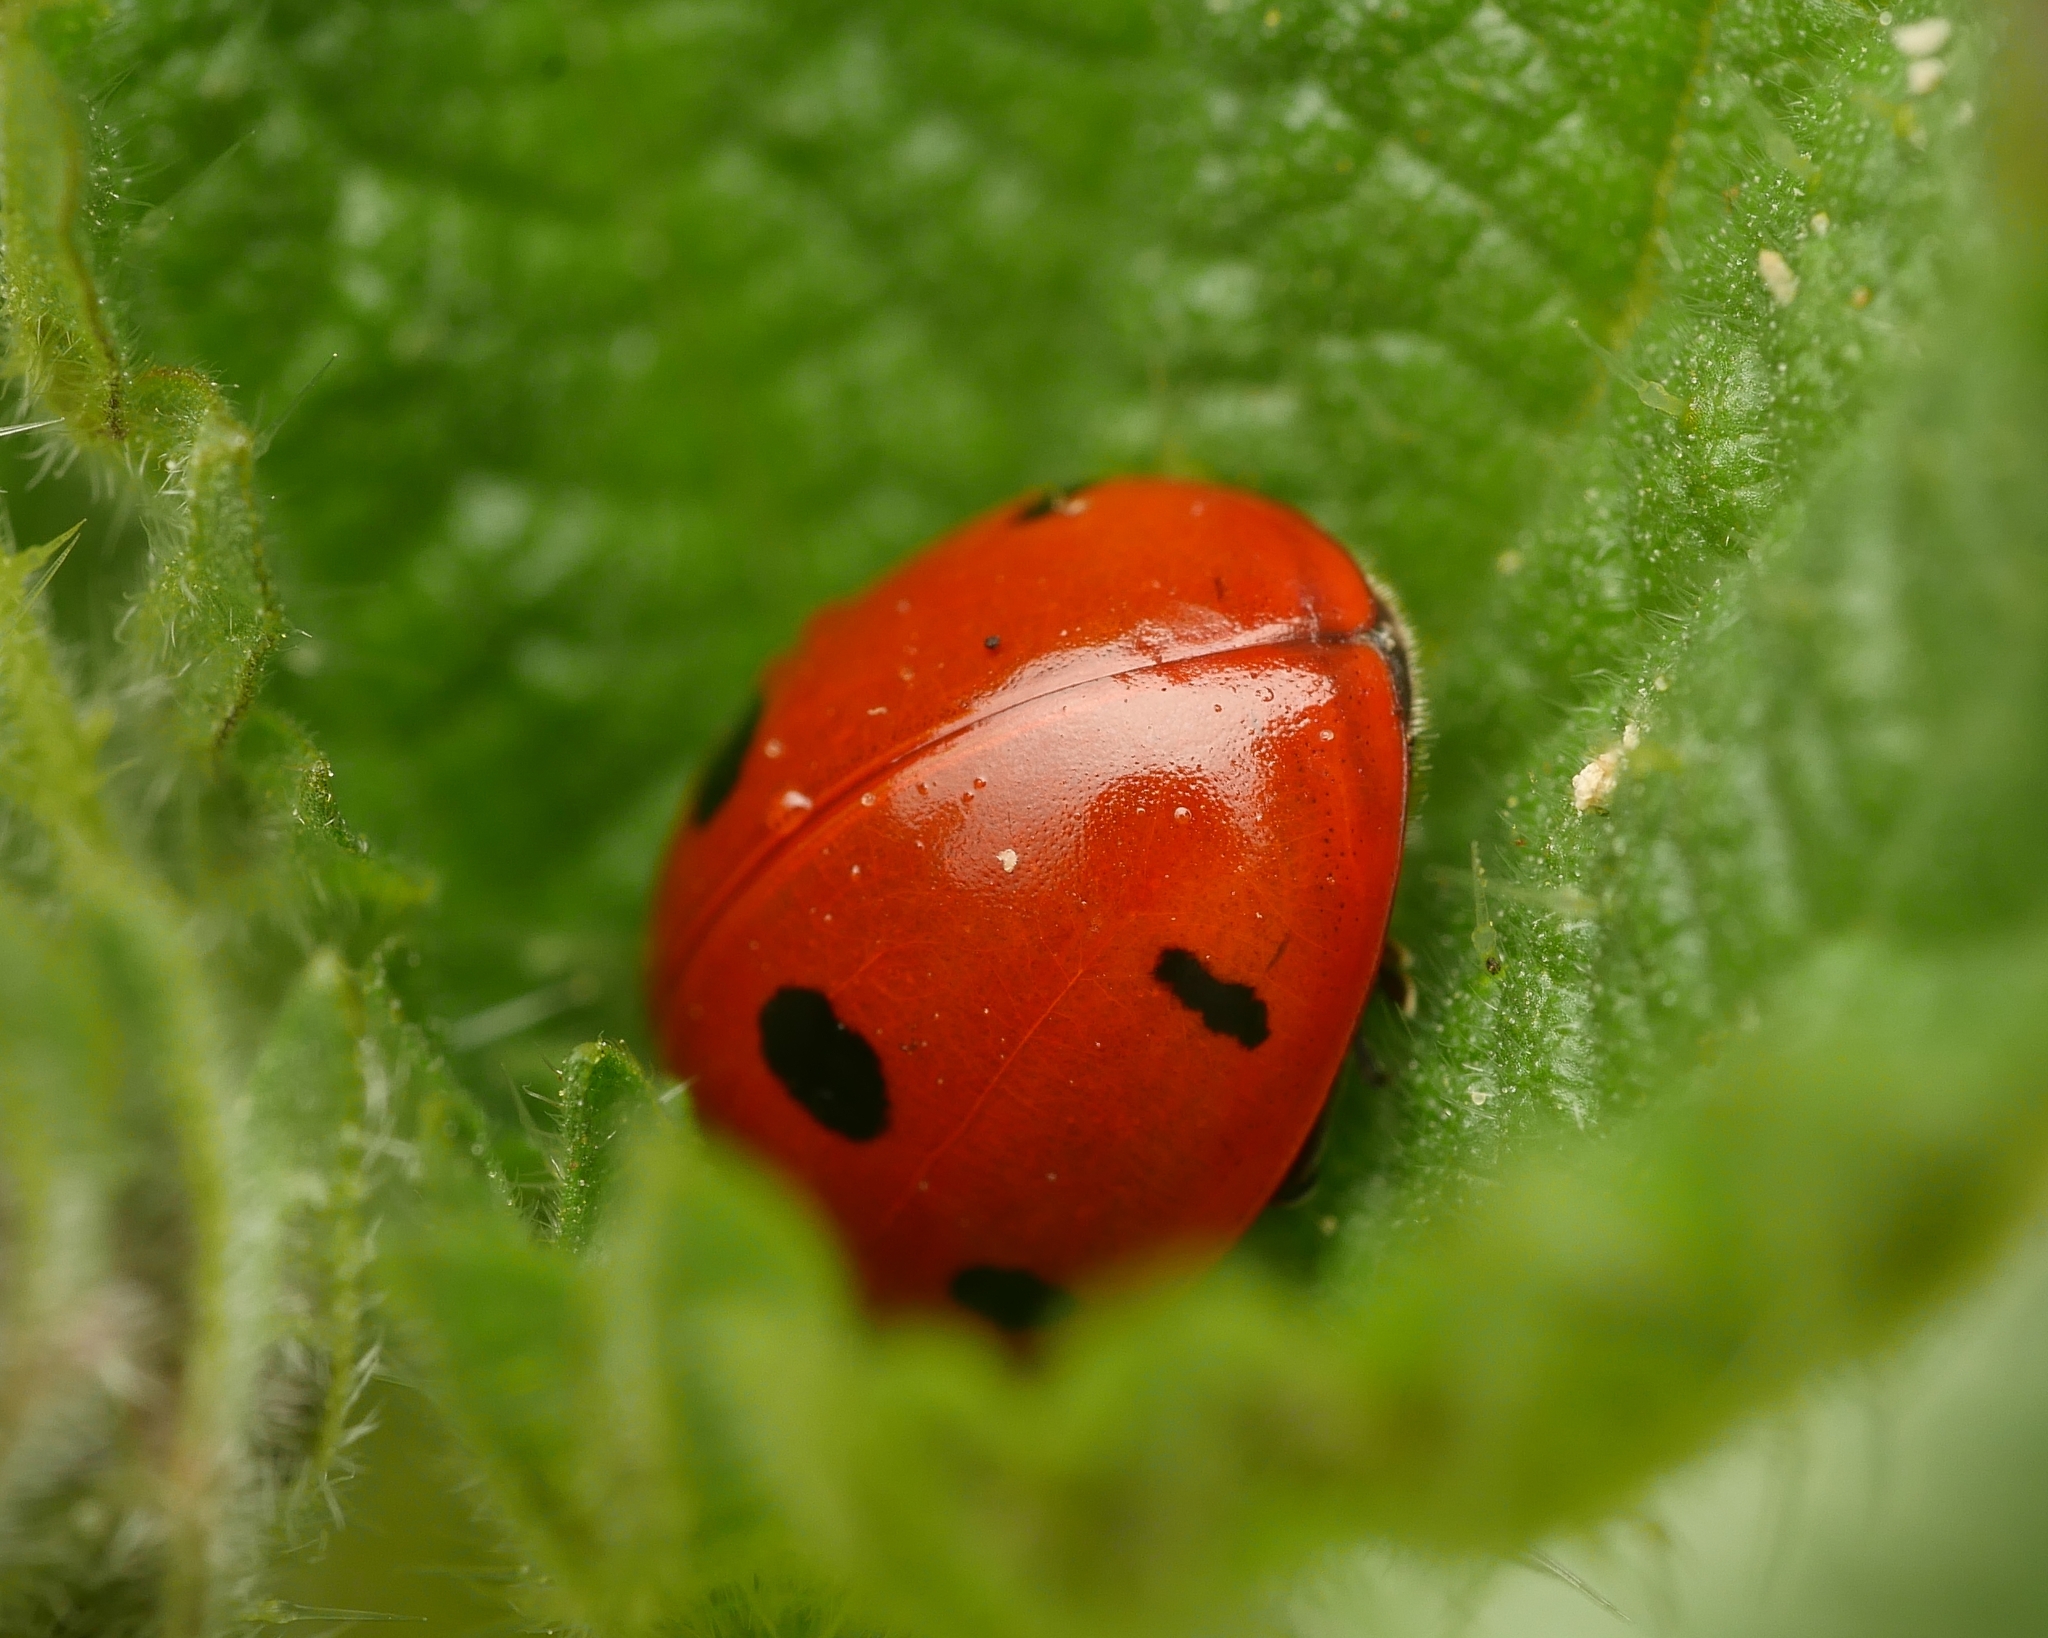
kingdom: Animalia
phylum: Arthropoda
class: Insecta
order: Coleoptera
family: Coccinellidae
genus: Coccinella
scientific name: Coccinella septempunctata
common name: Sevenspotted lady beetle
